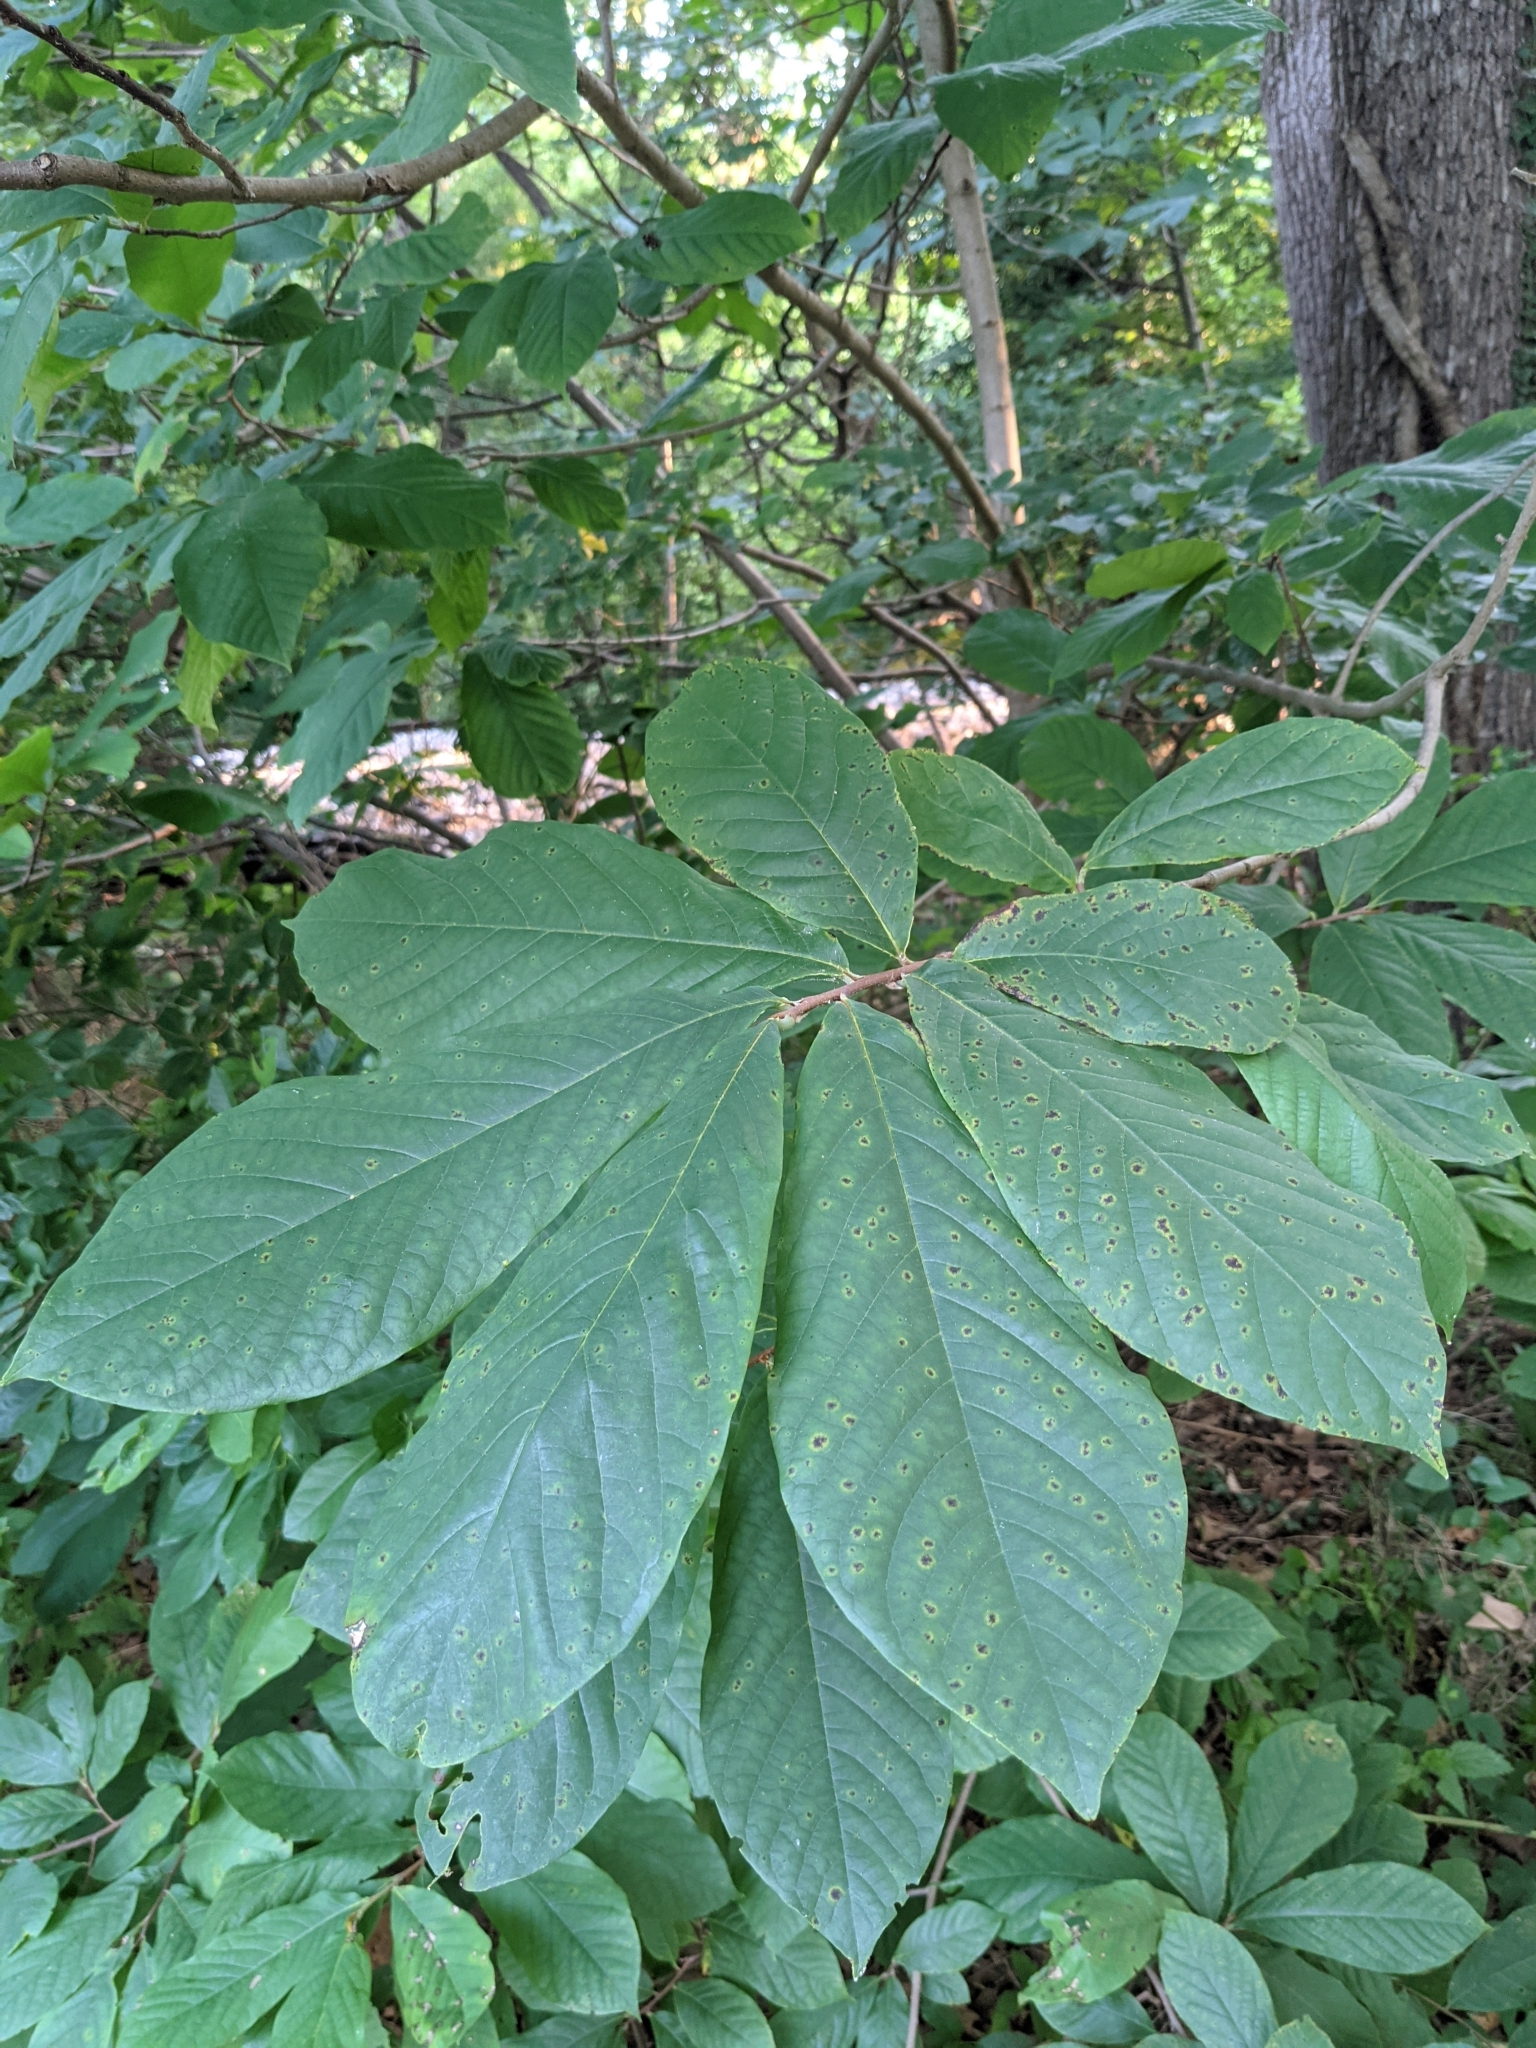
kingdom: Plantae
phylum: Tracheophyta
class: Magnoliopsida
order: Magnoliales
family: Annonaceae
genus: Asimina
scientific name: Asimina triloba
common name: Dog-banana
